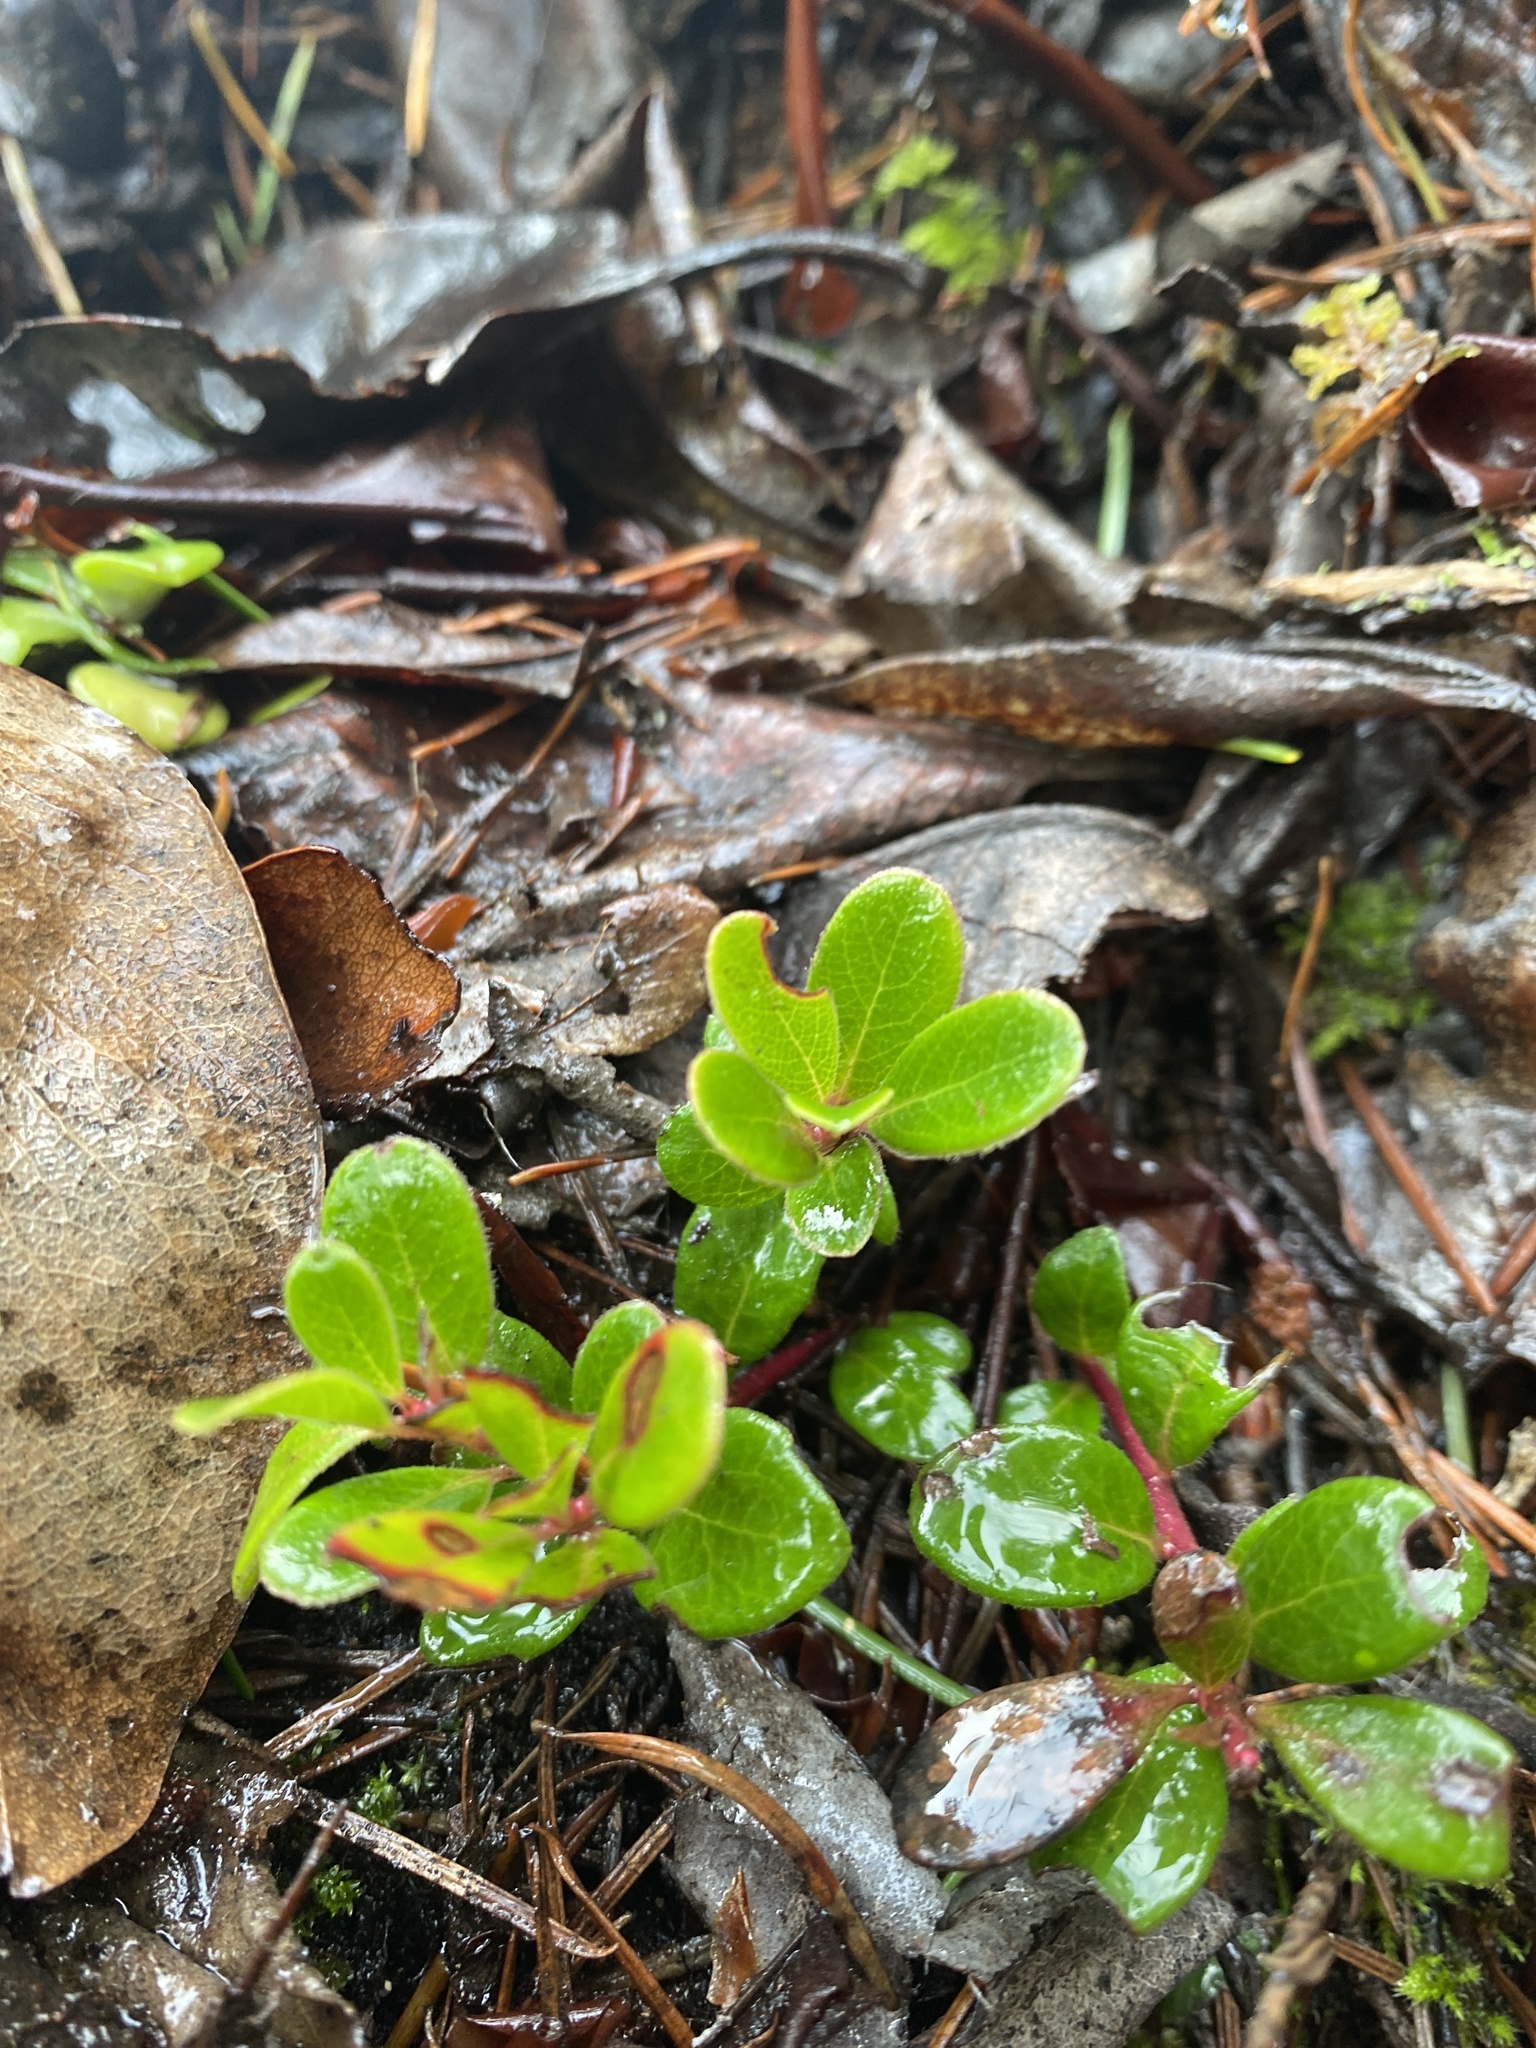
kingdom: Plantae
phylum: Tracheophyta
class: Magnoliopsida
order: Ericales
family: Ericaceae
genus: Arctostaphylos
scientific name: Arctostaphylos uva-ursi
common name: Bearberry
